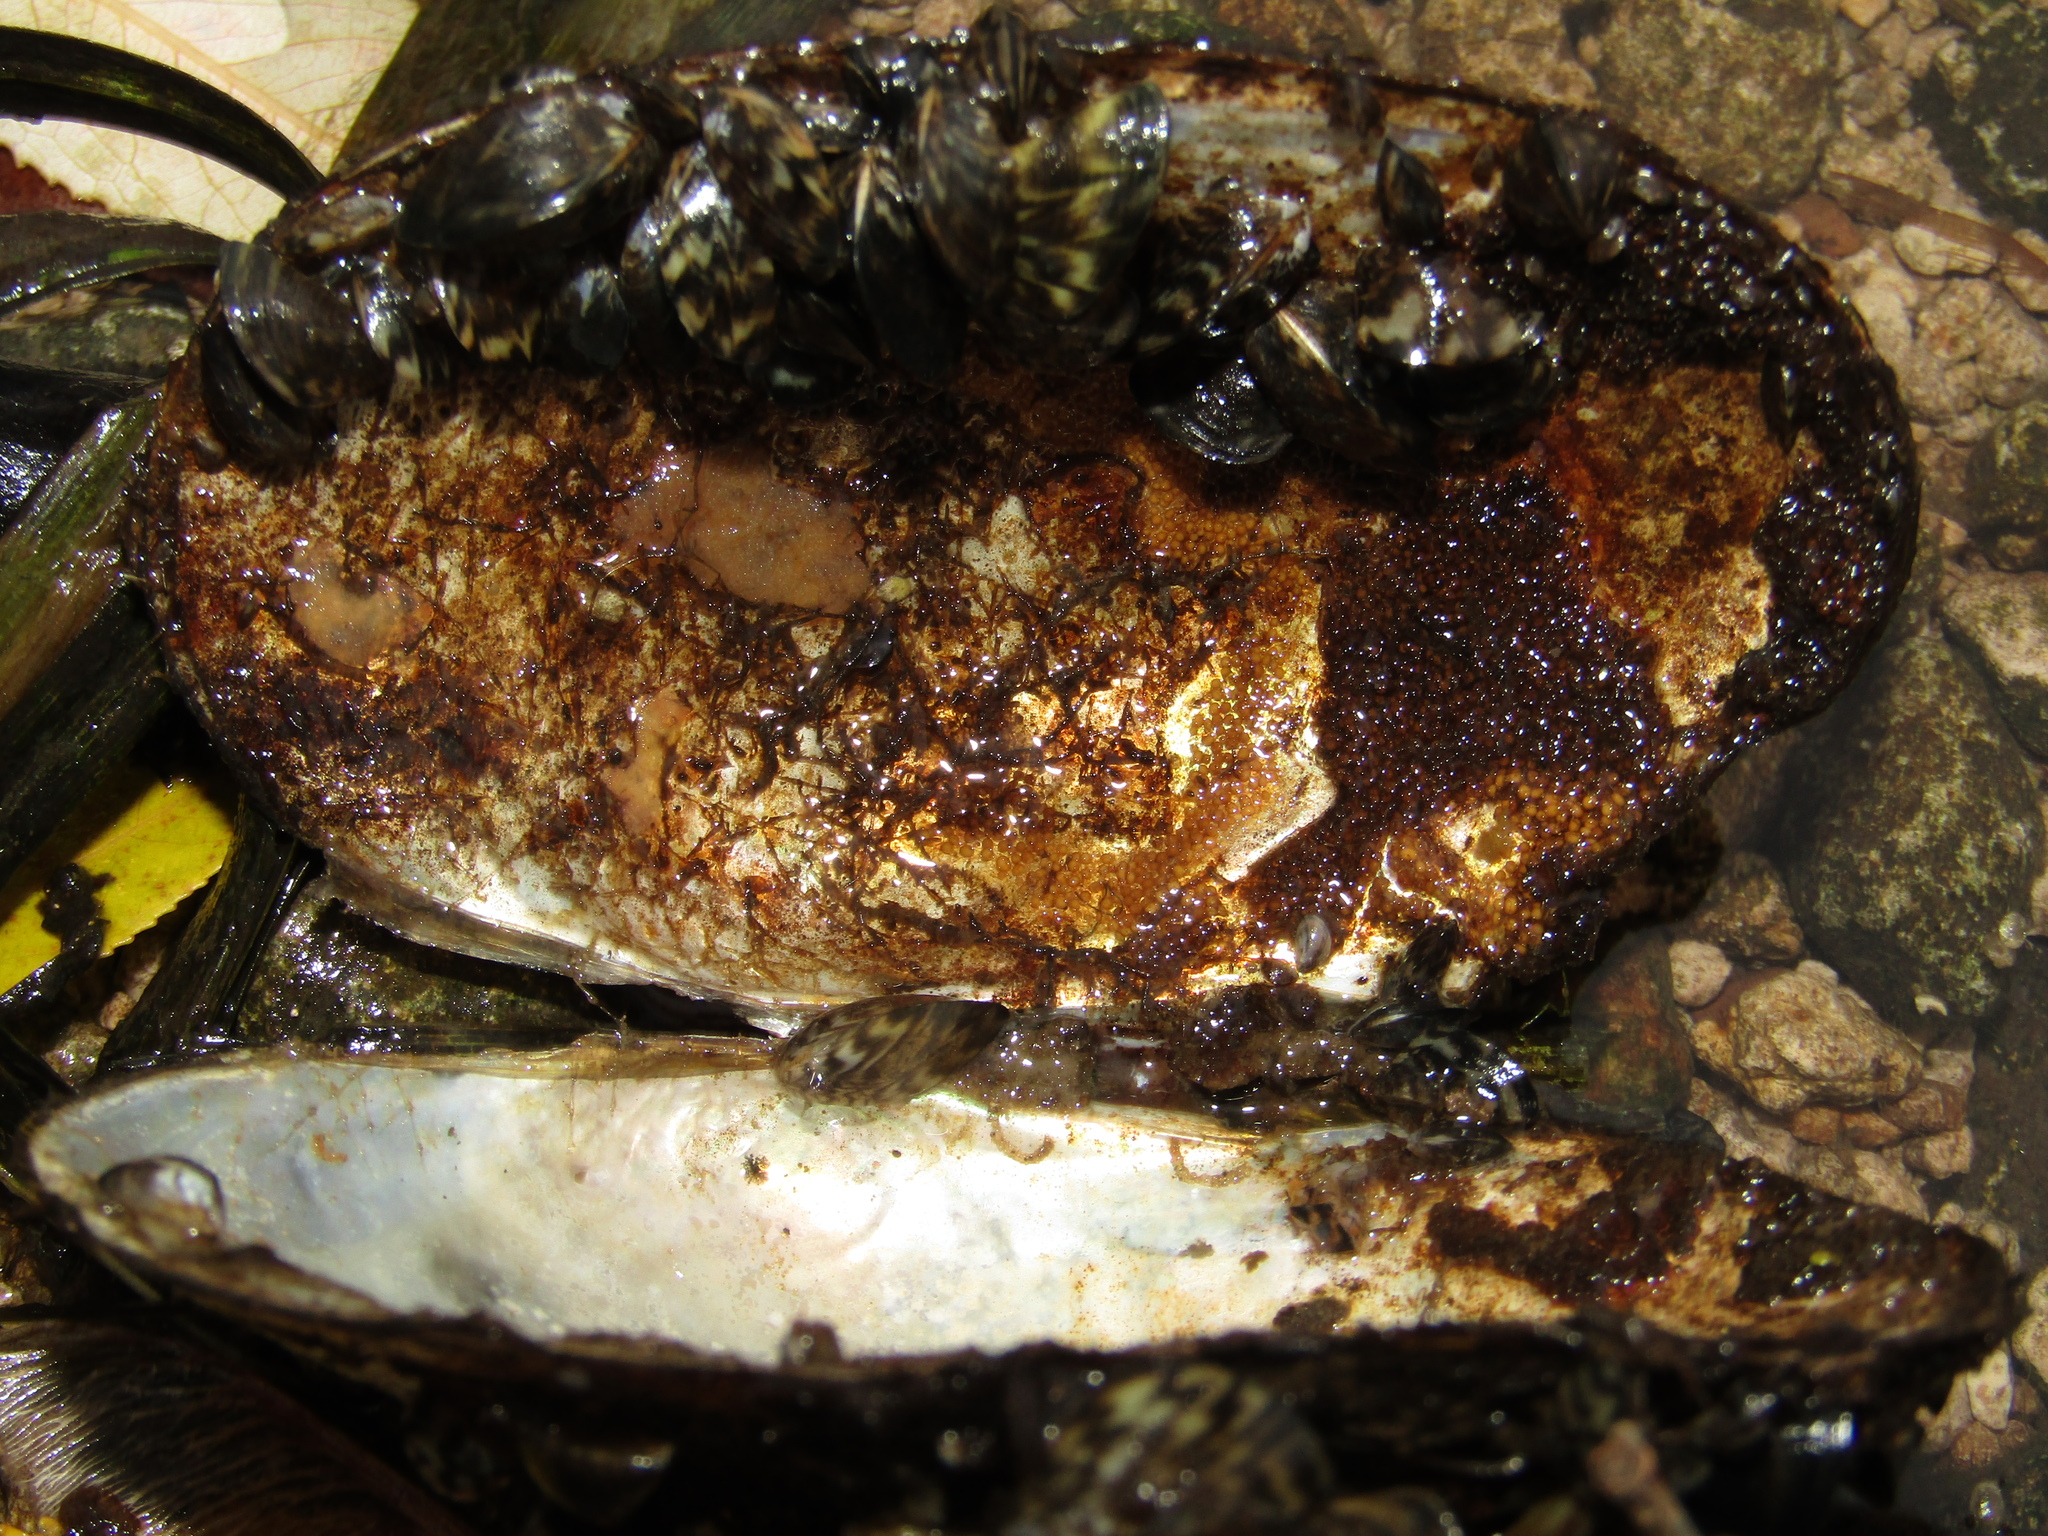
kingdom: Animalia
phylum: Mollusca
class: Bivalvia
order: Unionida
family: Unionidae
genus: Anodonta
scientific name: Anodonta anatina
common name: Duck mussel
